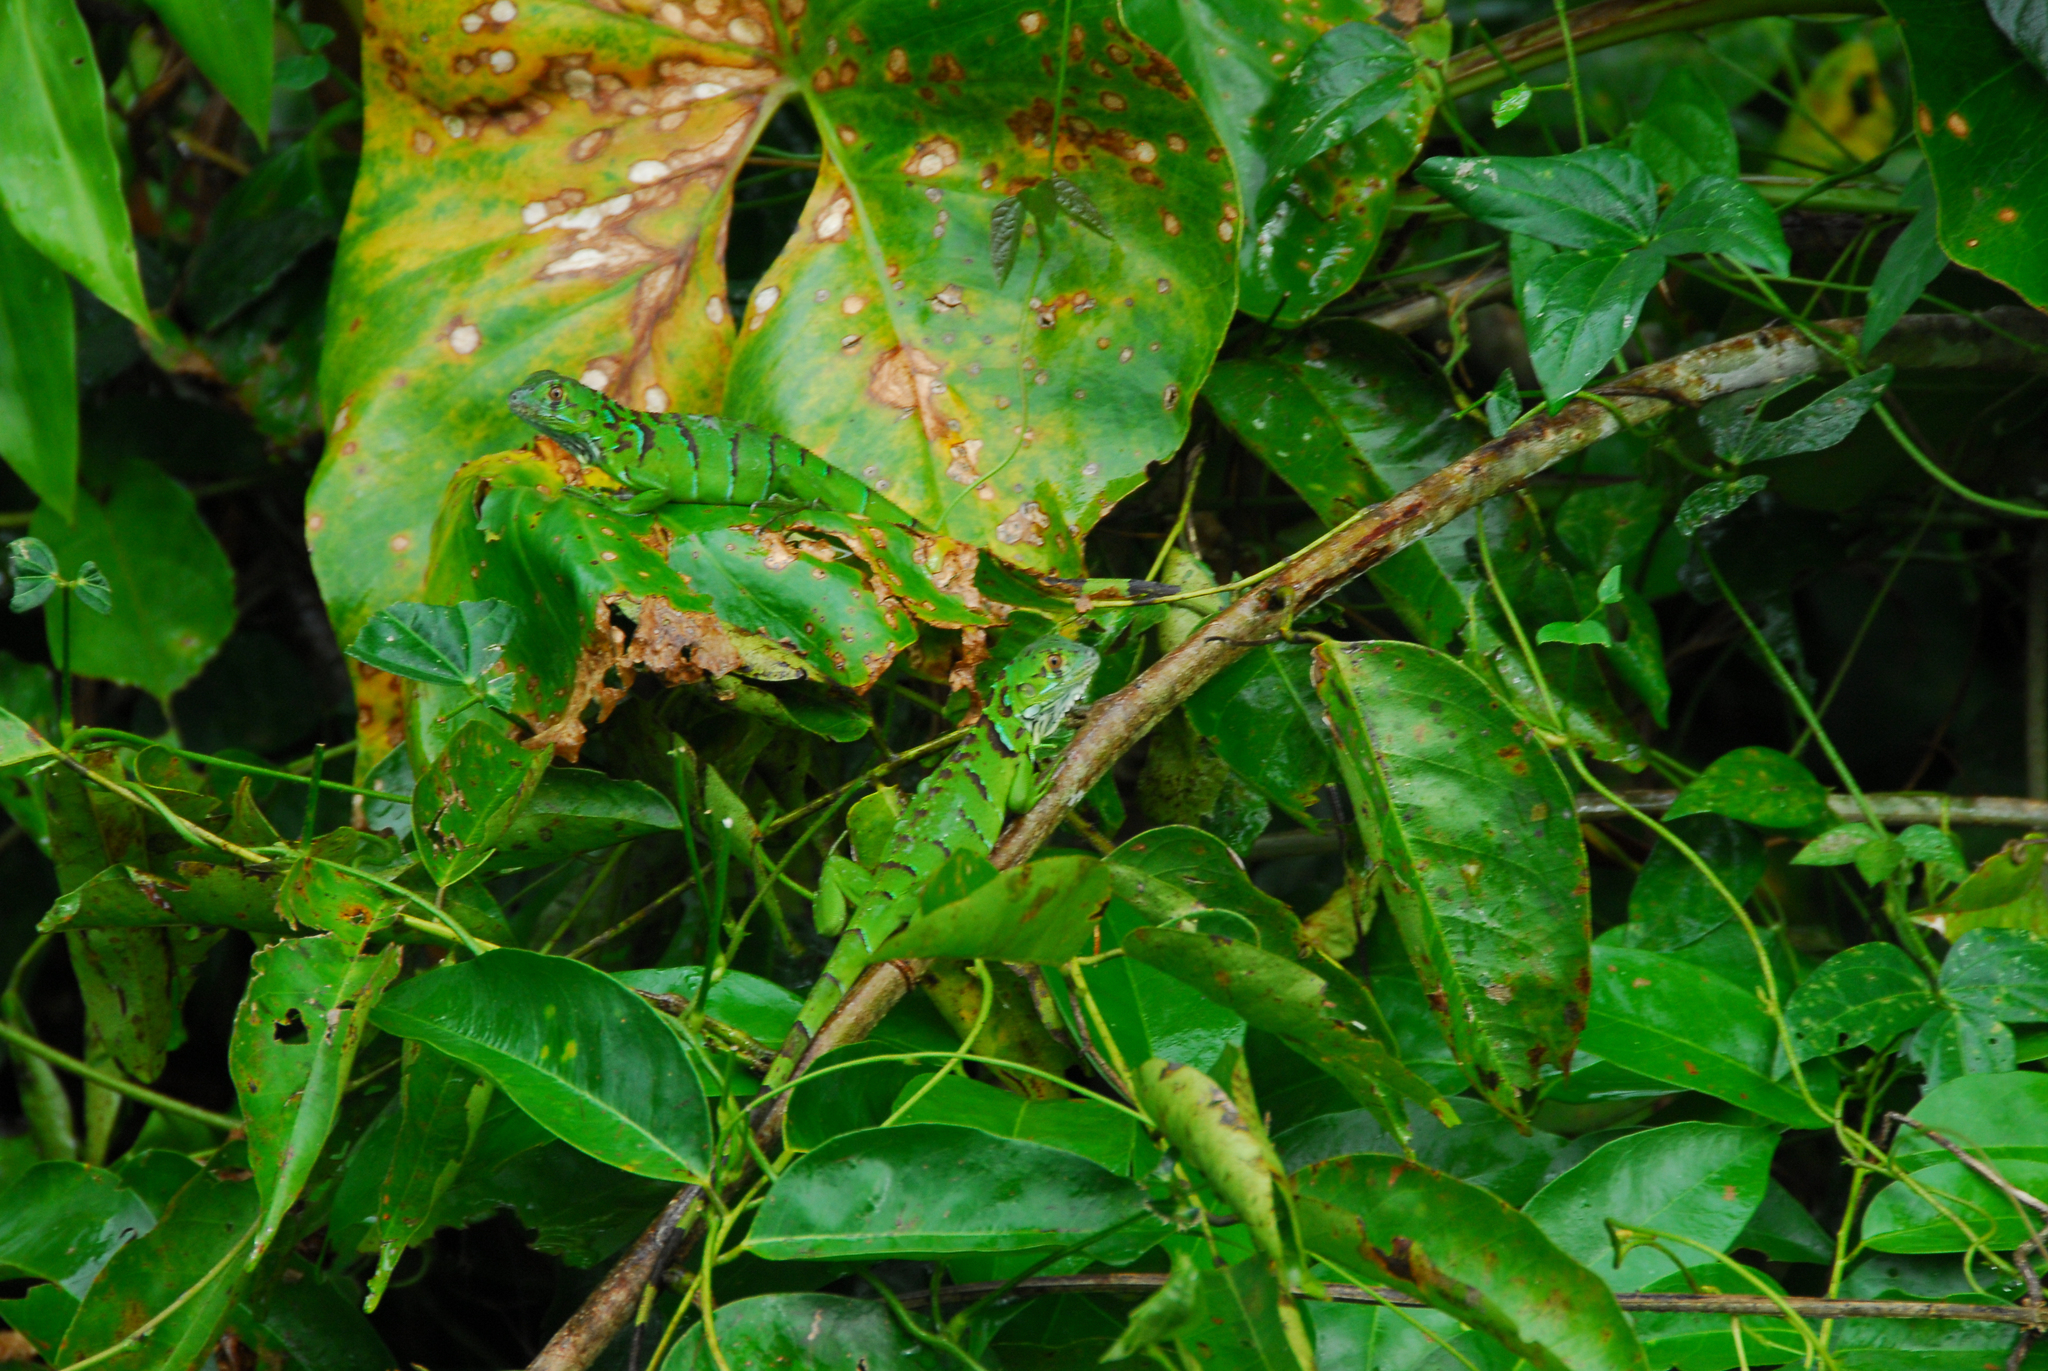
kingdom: Animalia
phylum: Chordata
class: Squamata
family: Iguanidae
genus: Iguana
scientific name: Iguana iguana
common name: Green iguana
